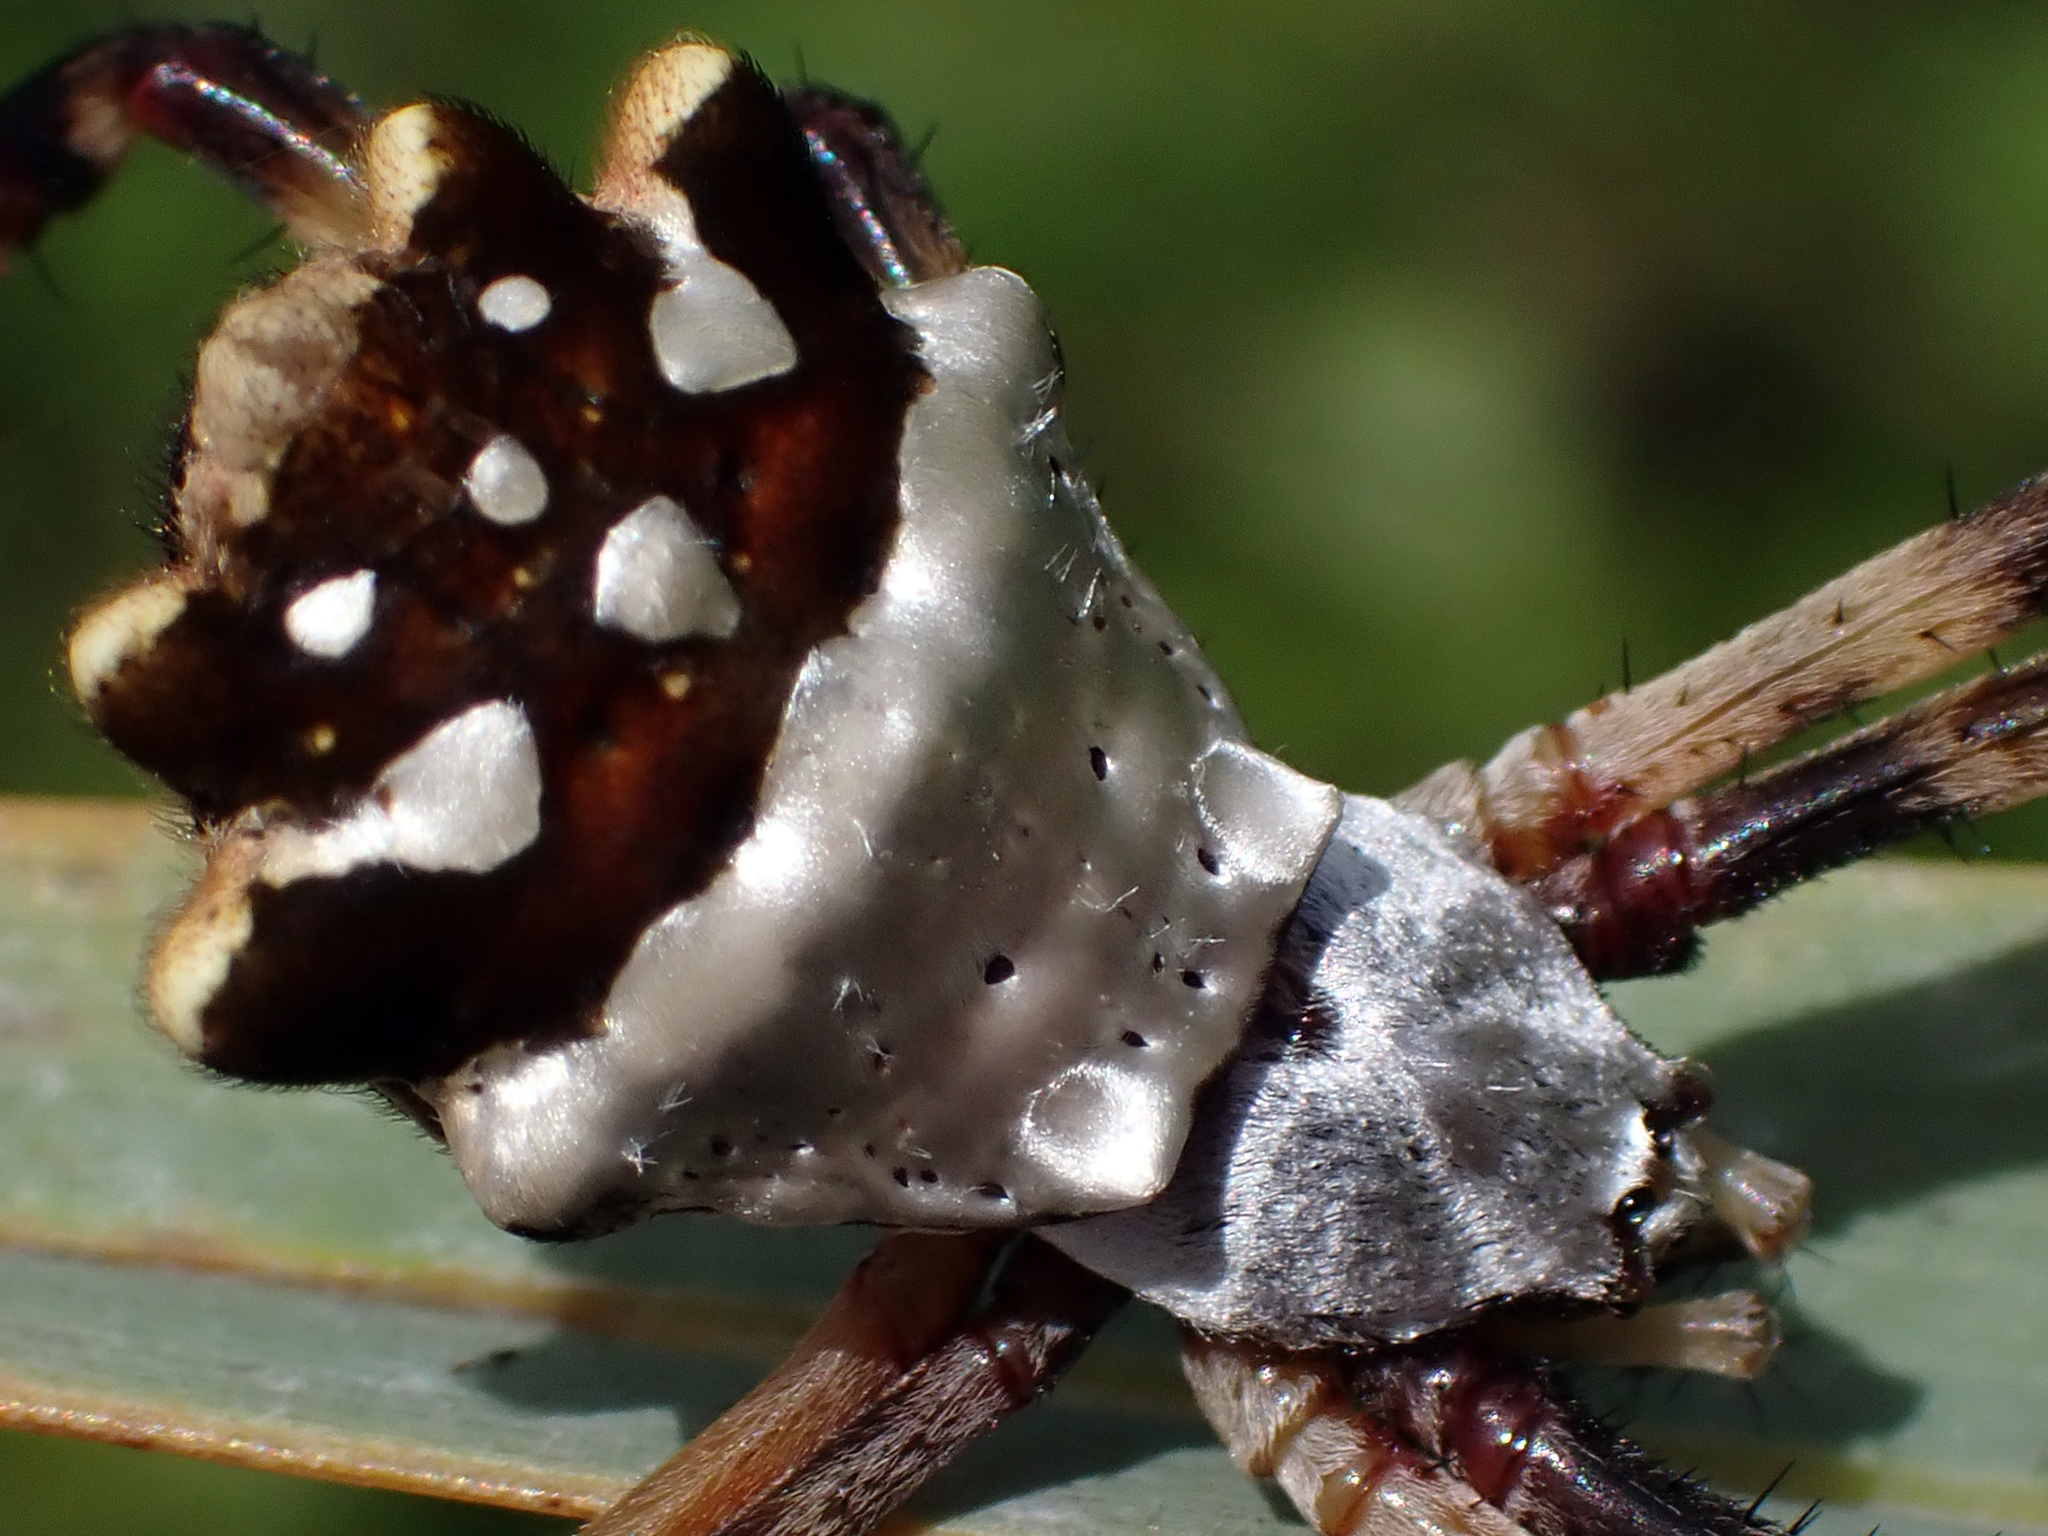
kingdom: Animalia
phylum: Arthropoda
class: Arachnida
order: Araneae
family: Araneidae
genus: Argiope
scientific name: Argiope argentata
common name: Orb weavers
